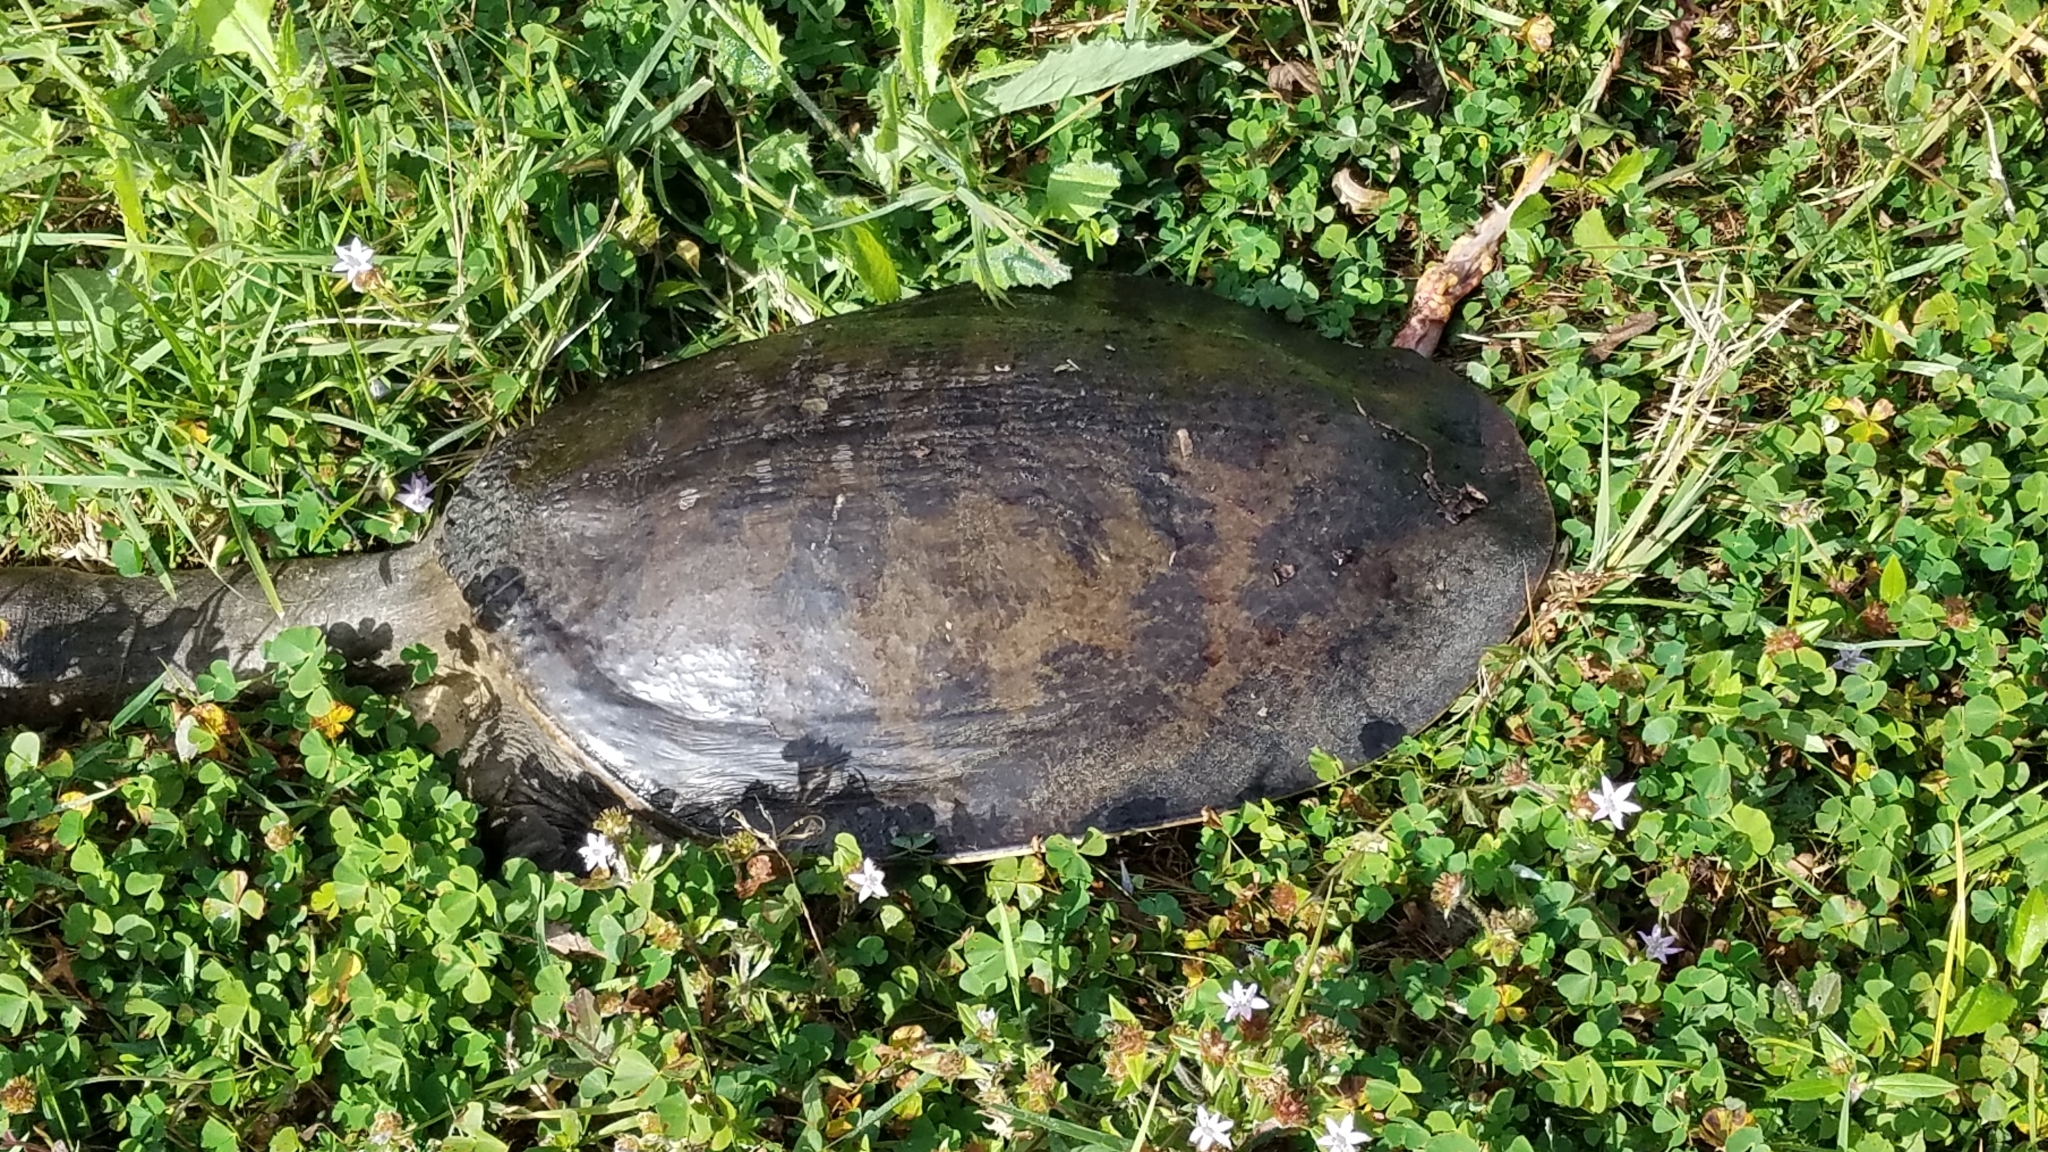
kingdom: Animalia
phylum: Chordata
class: Testudines
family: Trionychidae
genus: Apalone
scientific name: Apalone ferox
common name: Florida softshell turtle
